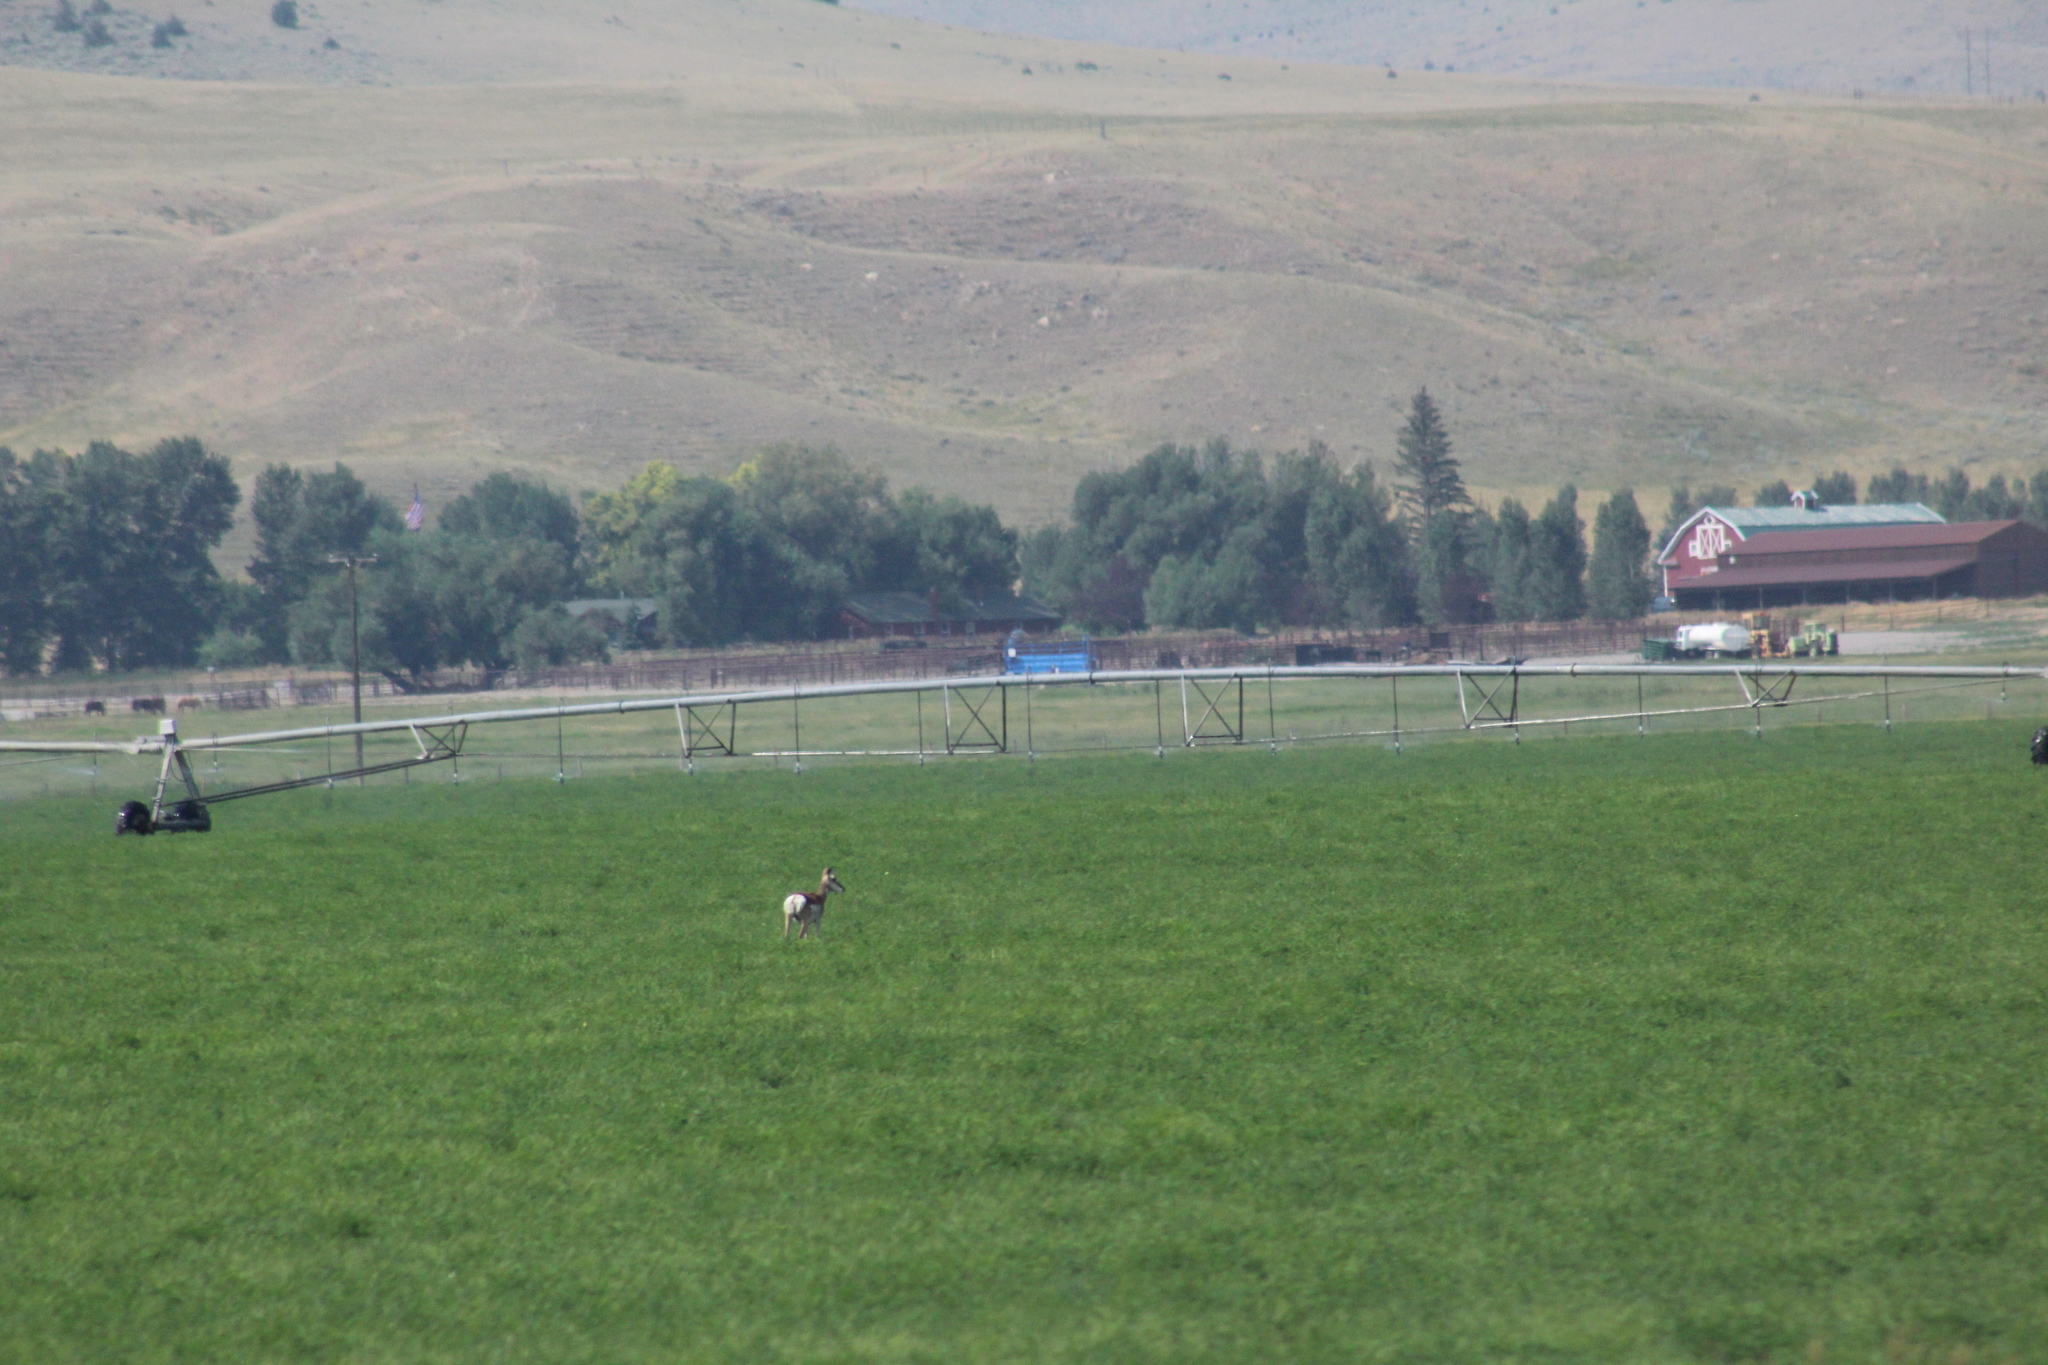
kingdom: Animalia
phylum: Chordata
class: Mammalia
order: Artiodactyla
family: Antilocapridae
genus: Antilocapra
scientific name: Antilocapra americana
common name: Pronghorn
